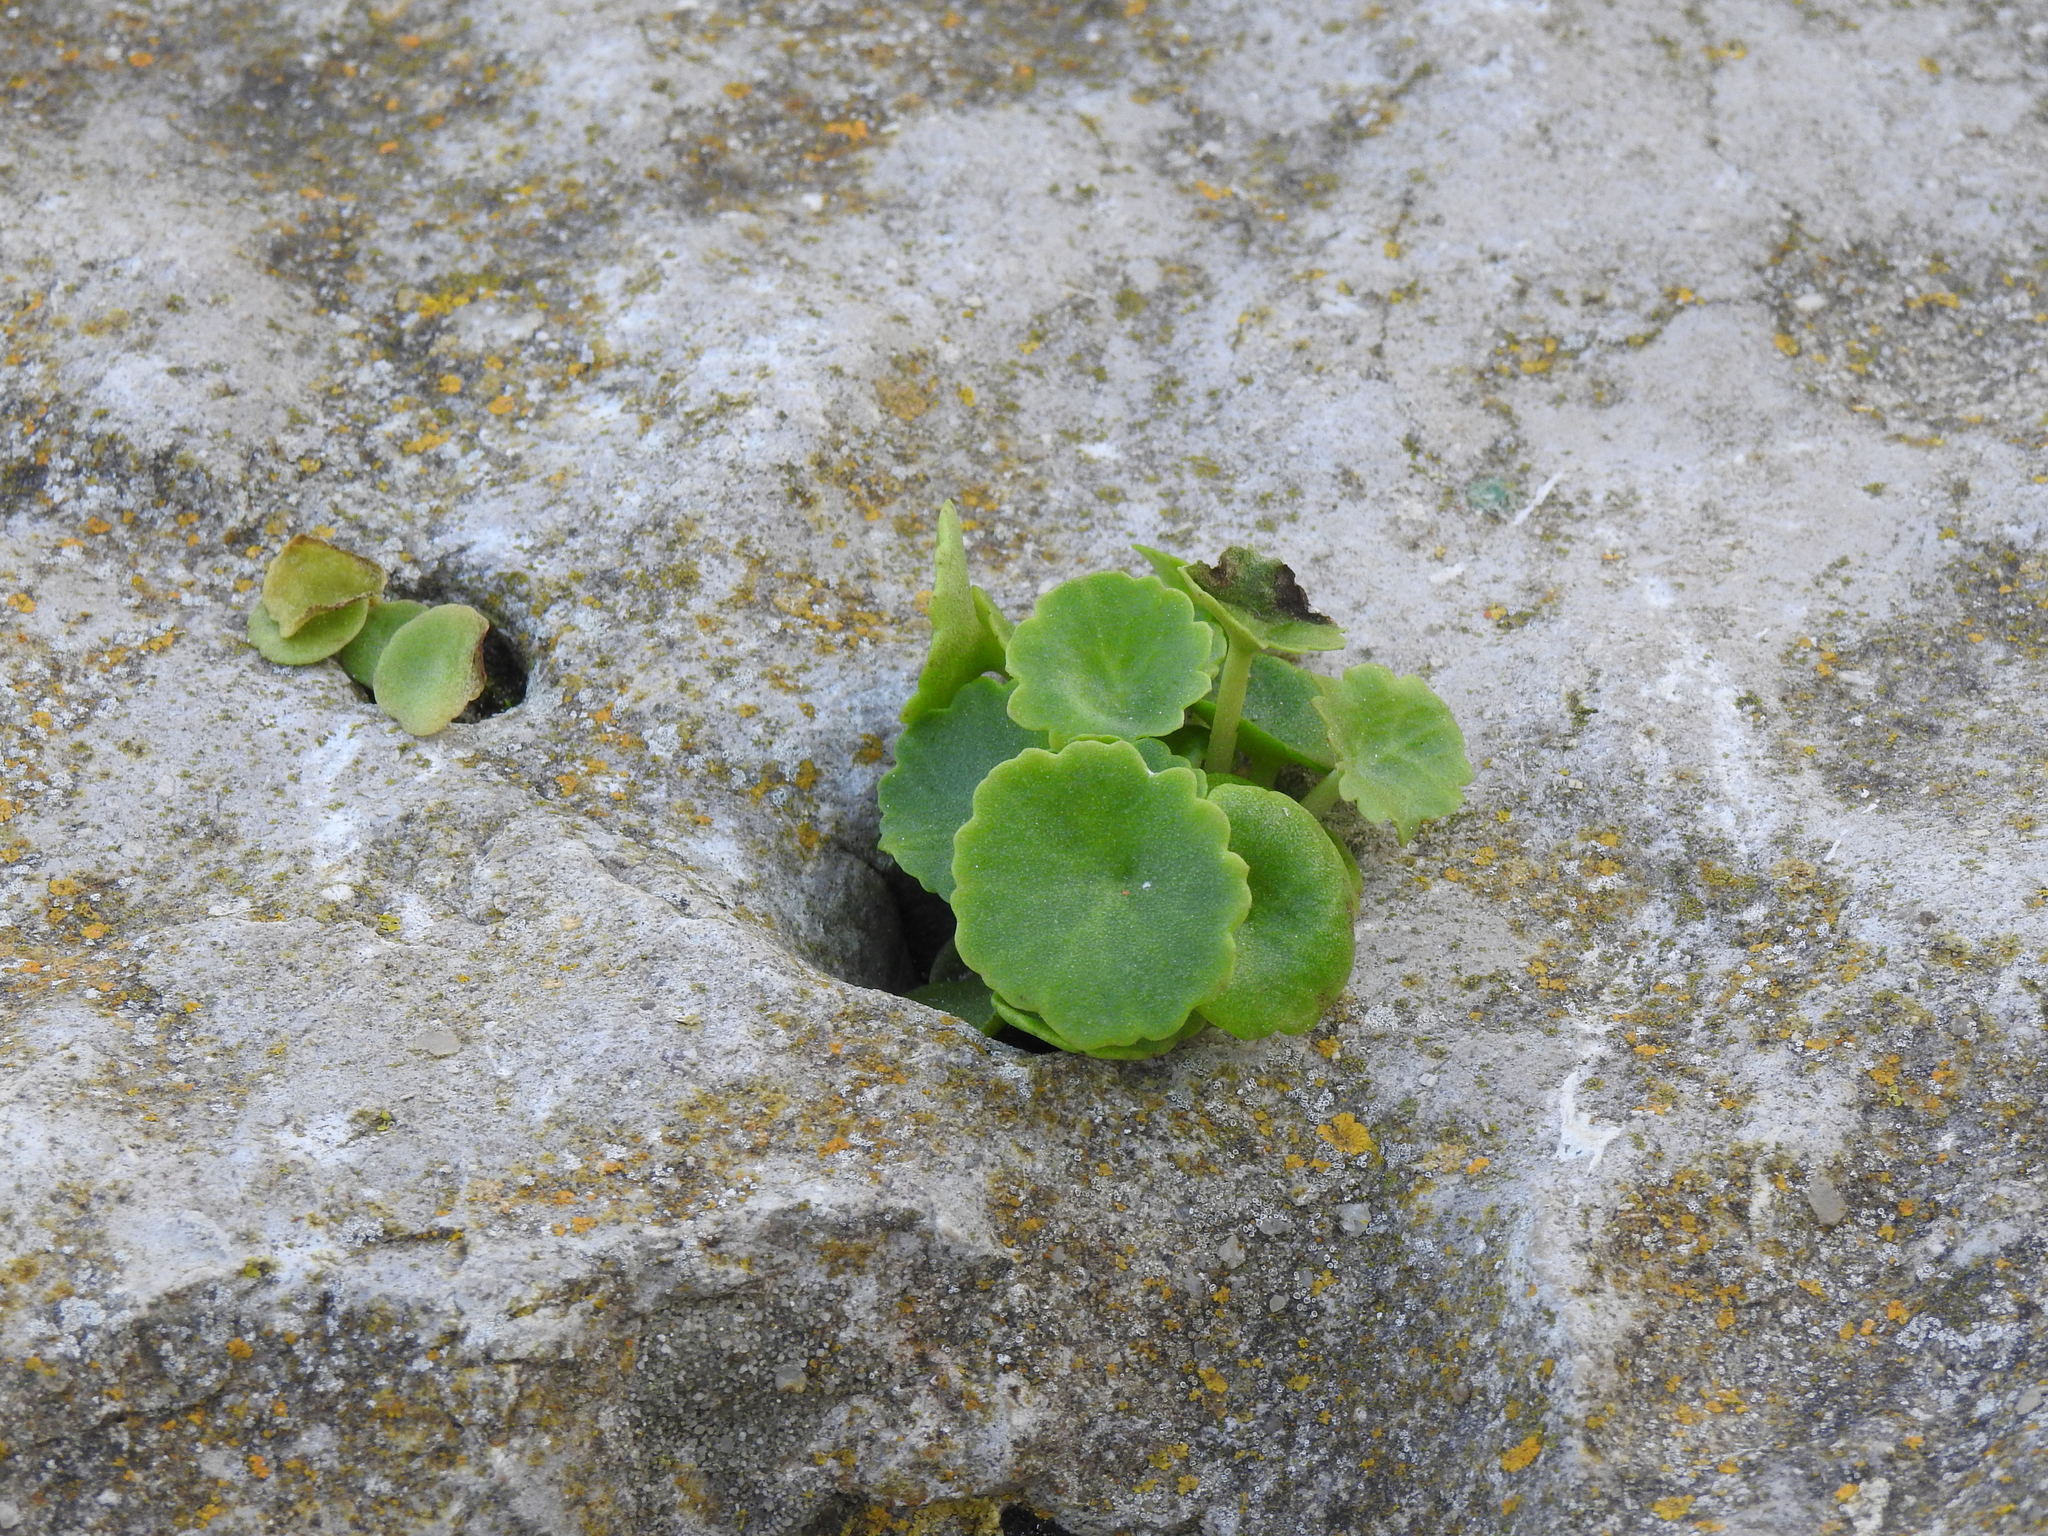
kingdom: Plantae
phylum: Tracheophyta
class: Magnoliopsida
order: Saxifragales
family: Crassulaceae
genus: Umbilicus
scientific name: Umbilicus rupestris
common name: Navelwort
